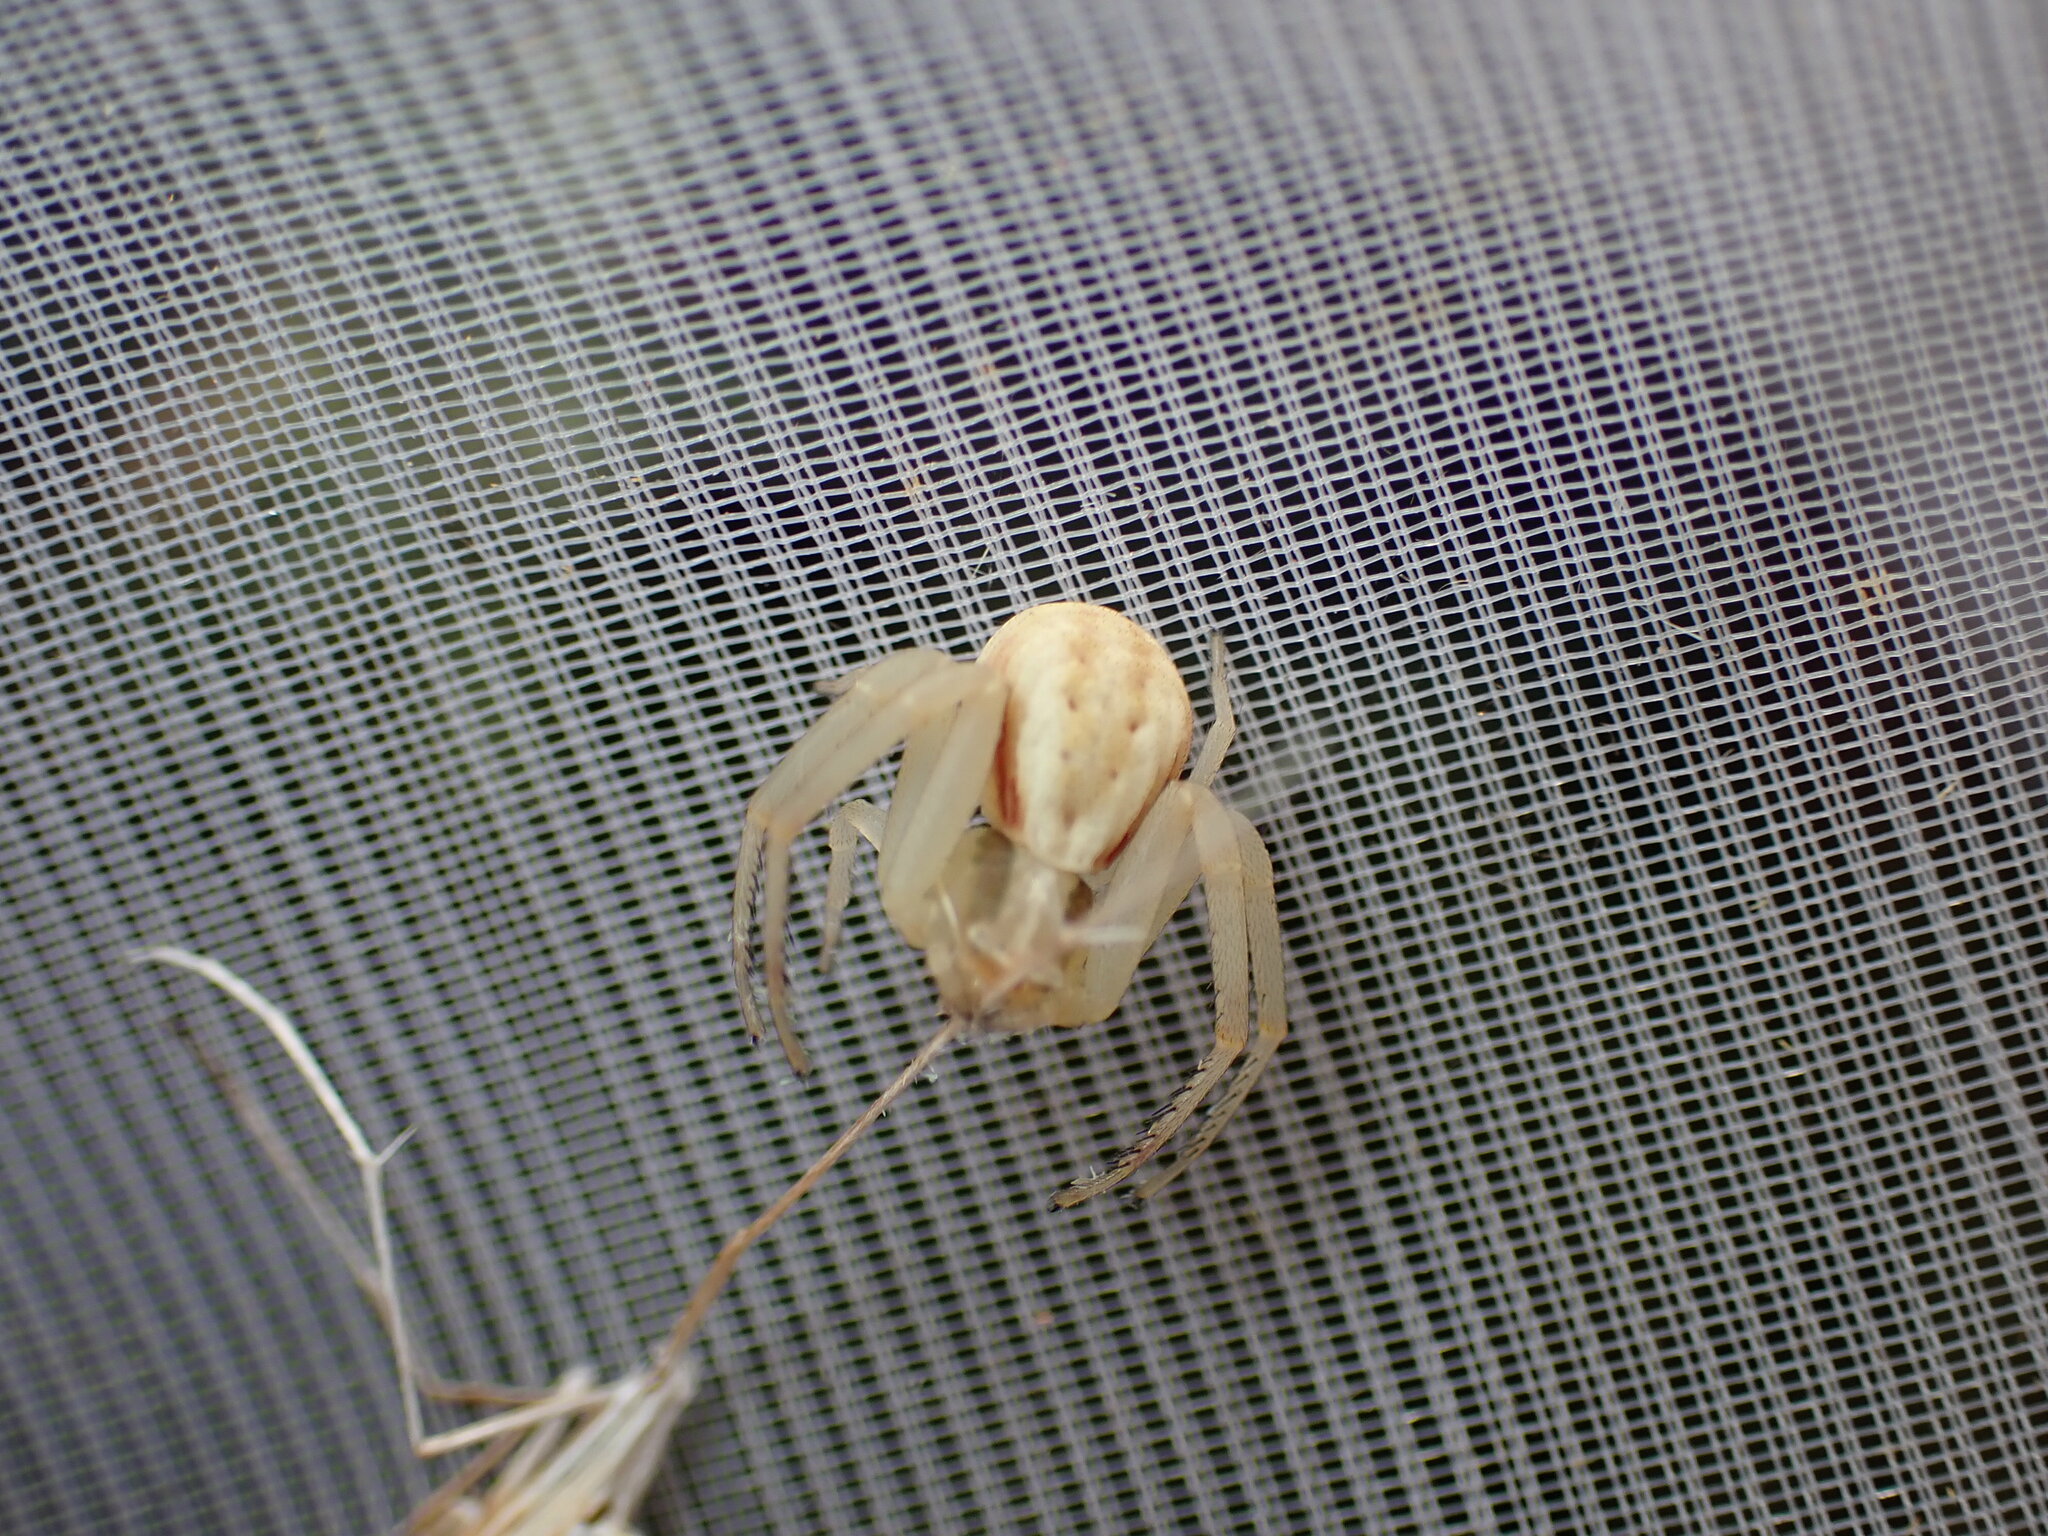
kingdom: Animalia
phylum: Arthropoda
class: Arachnida
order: Araneae
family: Thomisidae
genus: Runcinia
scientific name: Runcinia grammica
